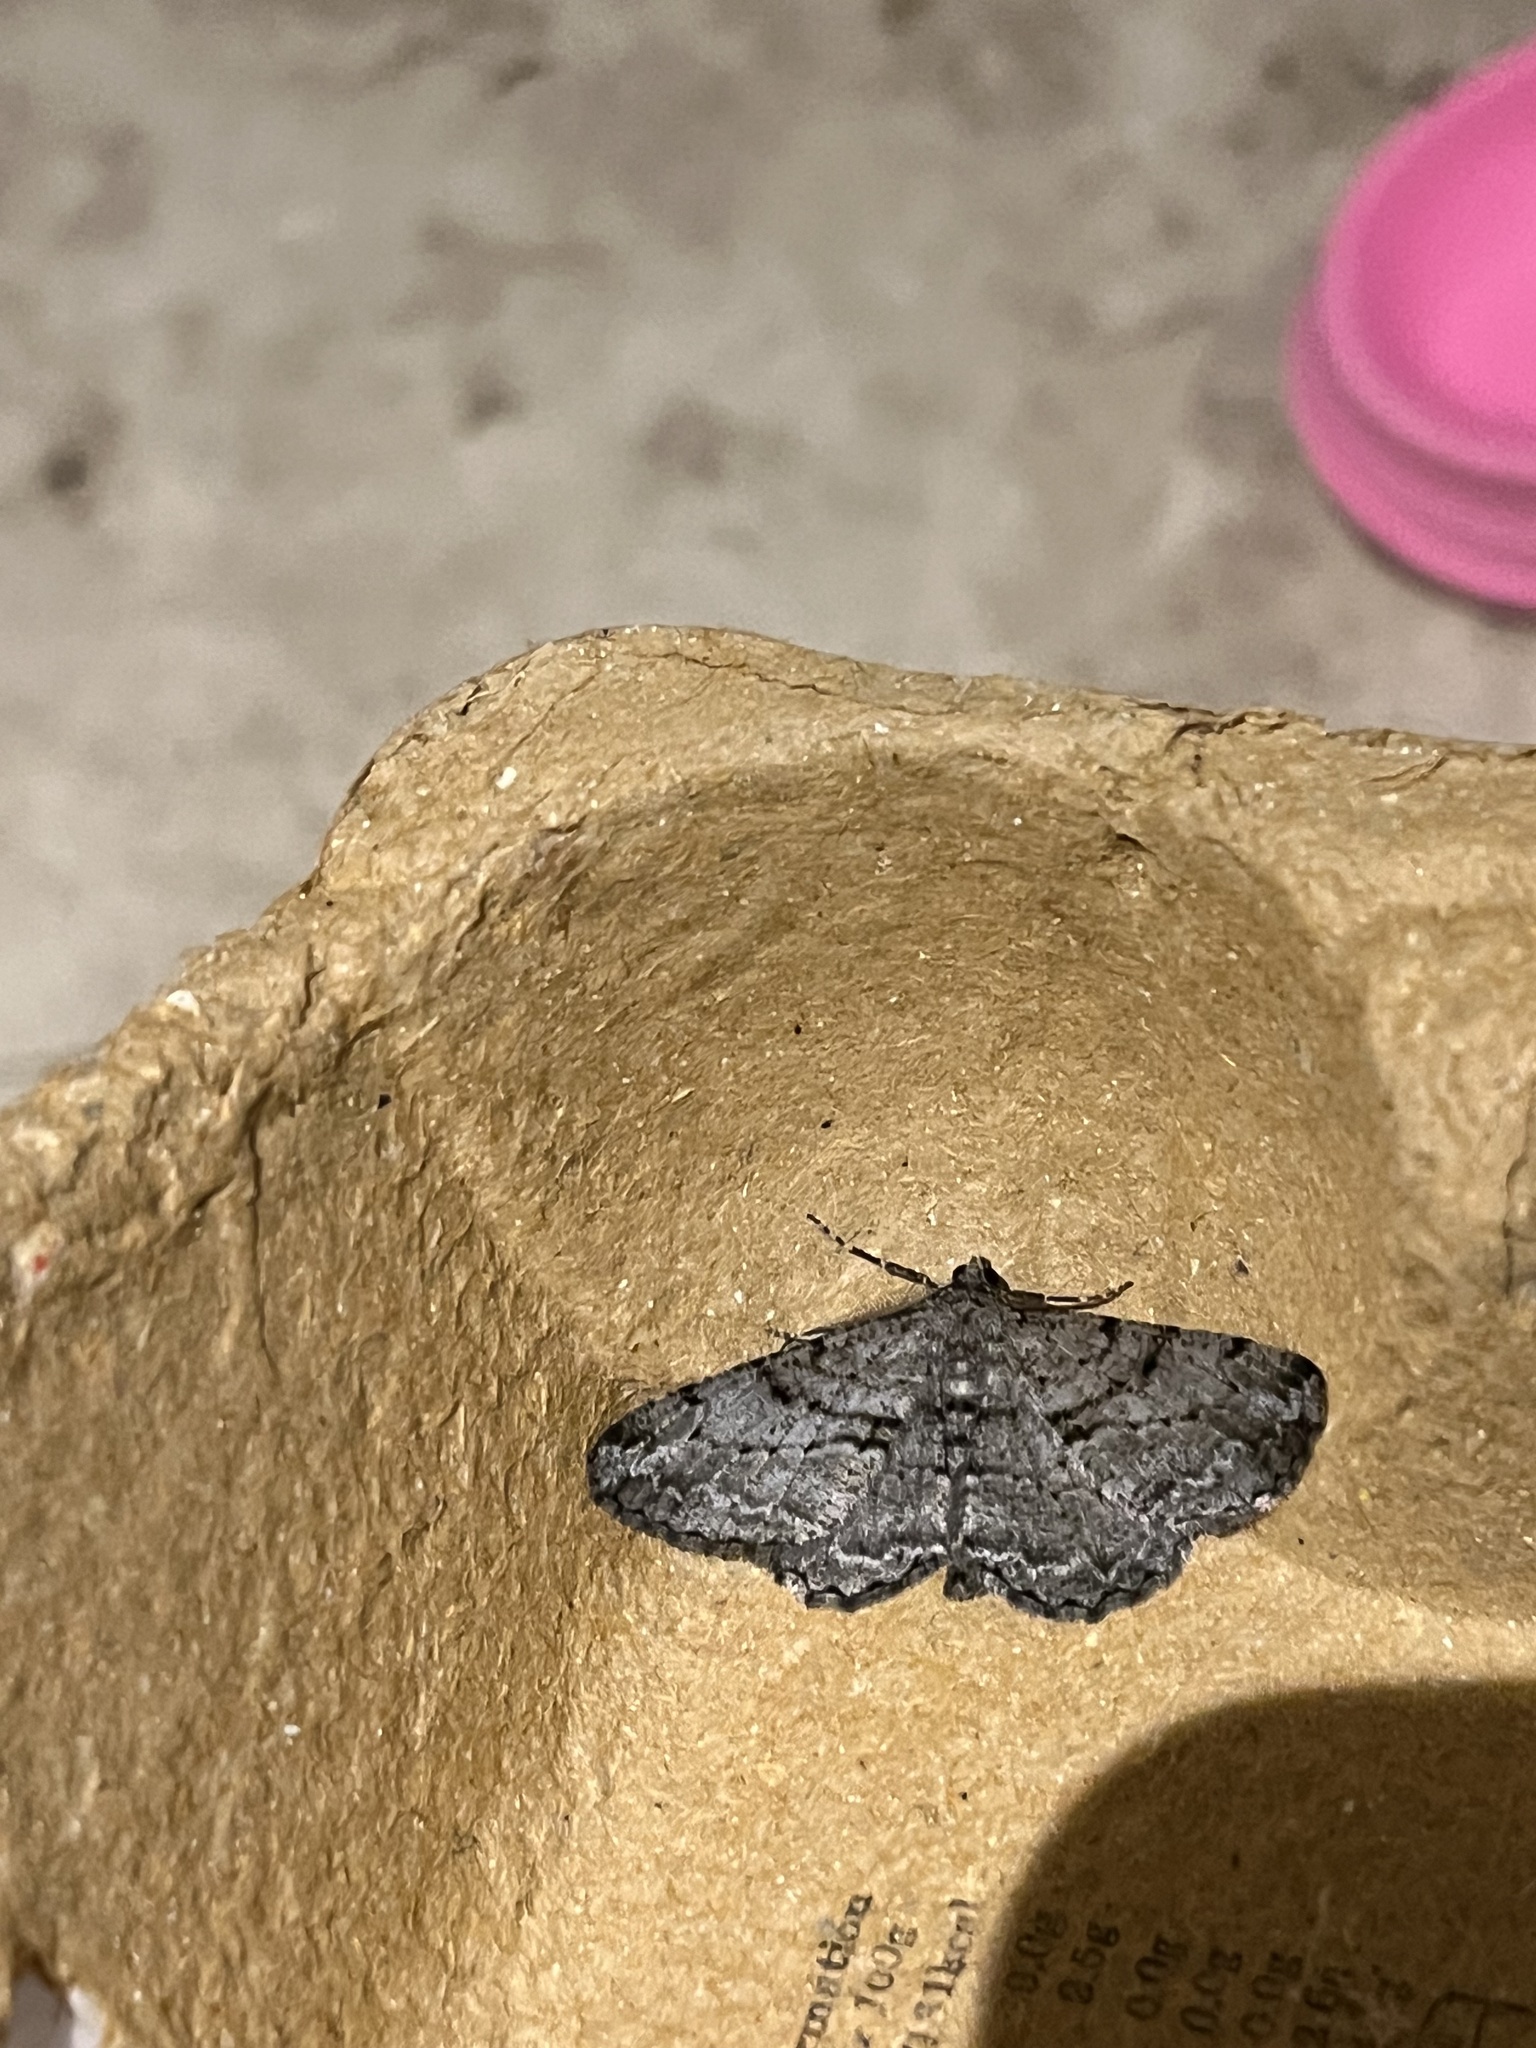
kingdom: Animalia
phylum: Arthropoda
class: Insecta
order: Lepidoptera
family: Geometridae
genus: Peribatodes
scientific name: Peribatodes rhomboidaria
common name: Willow beauty
